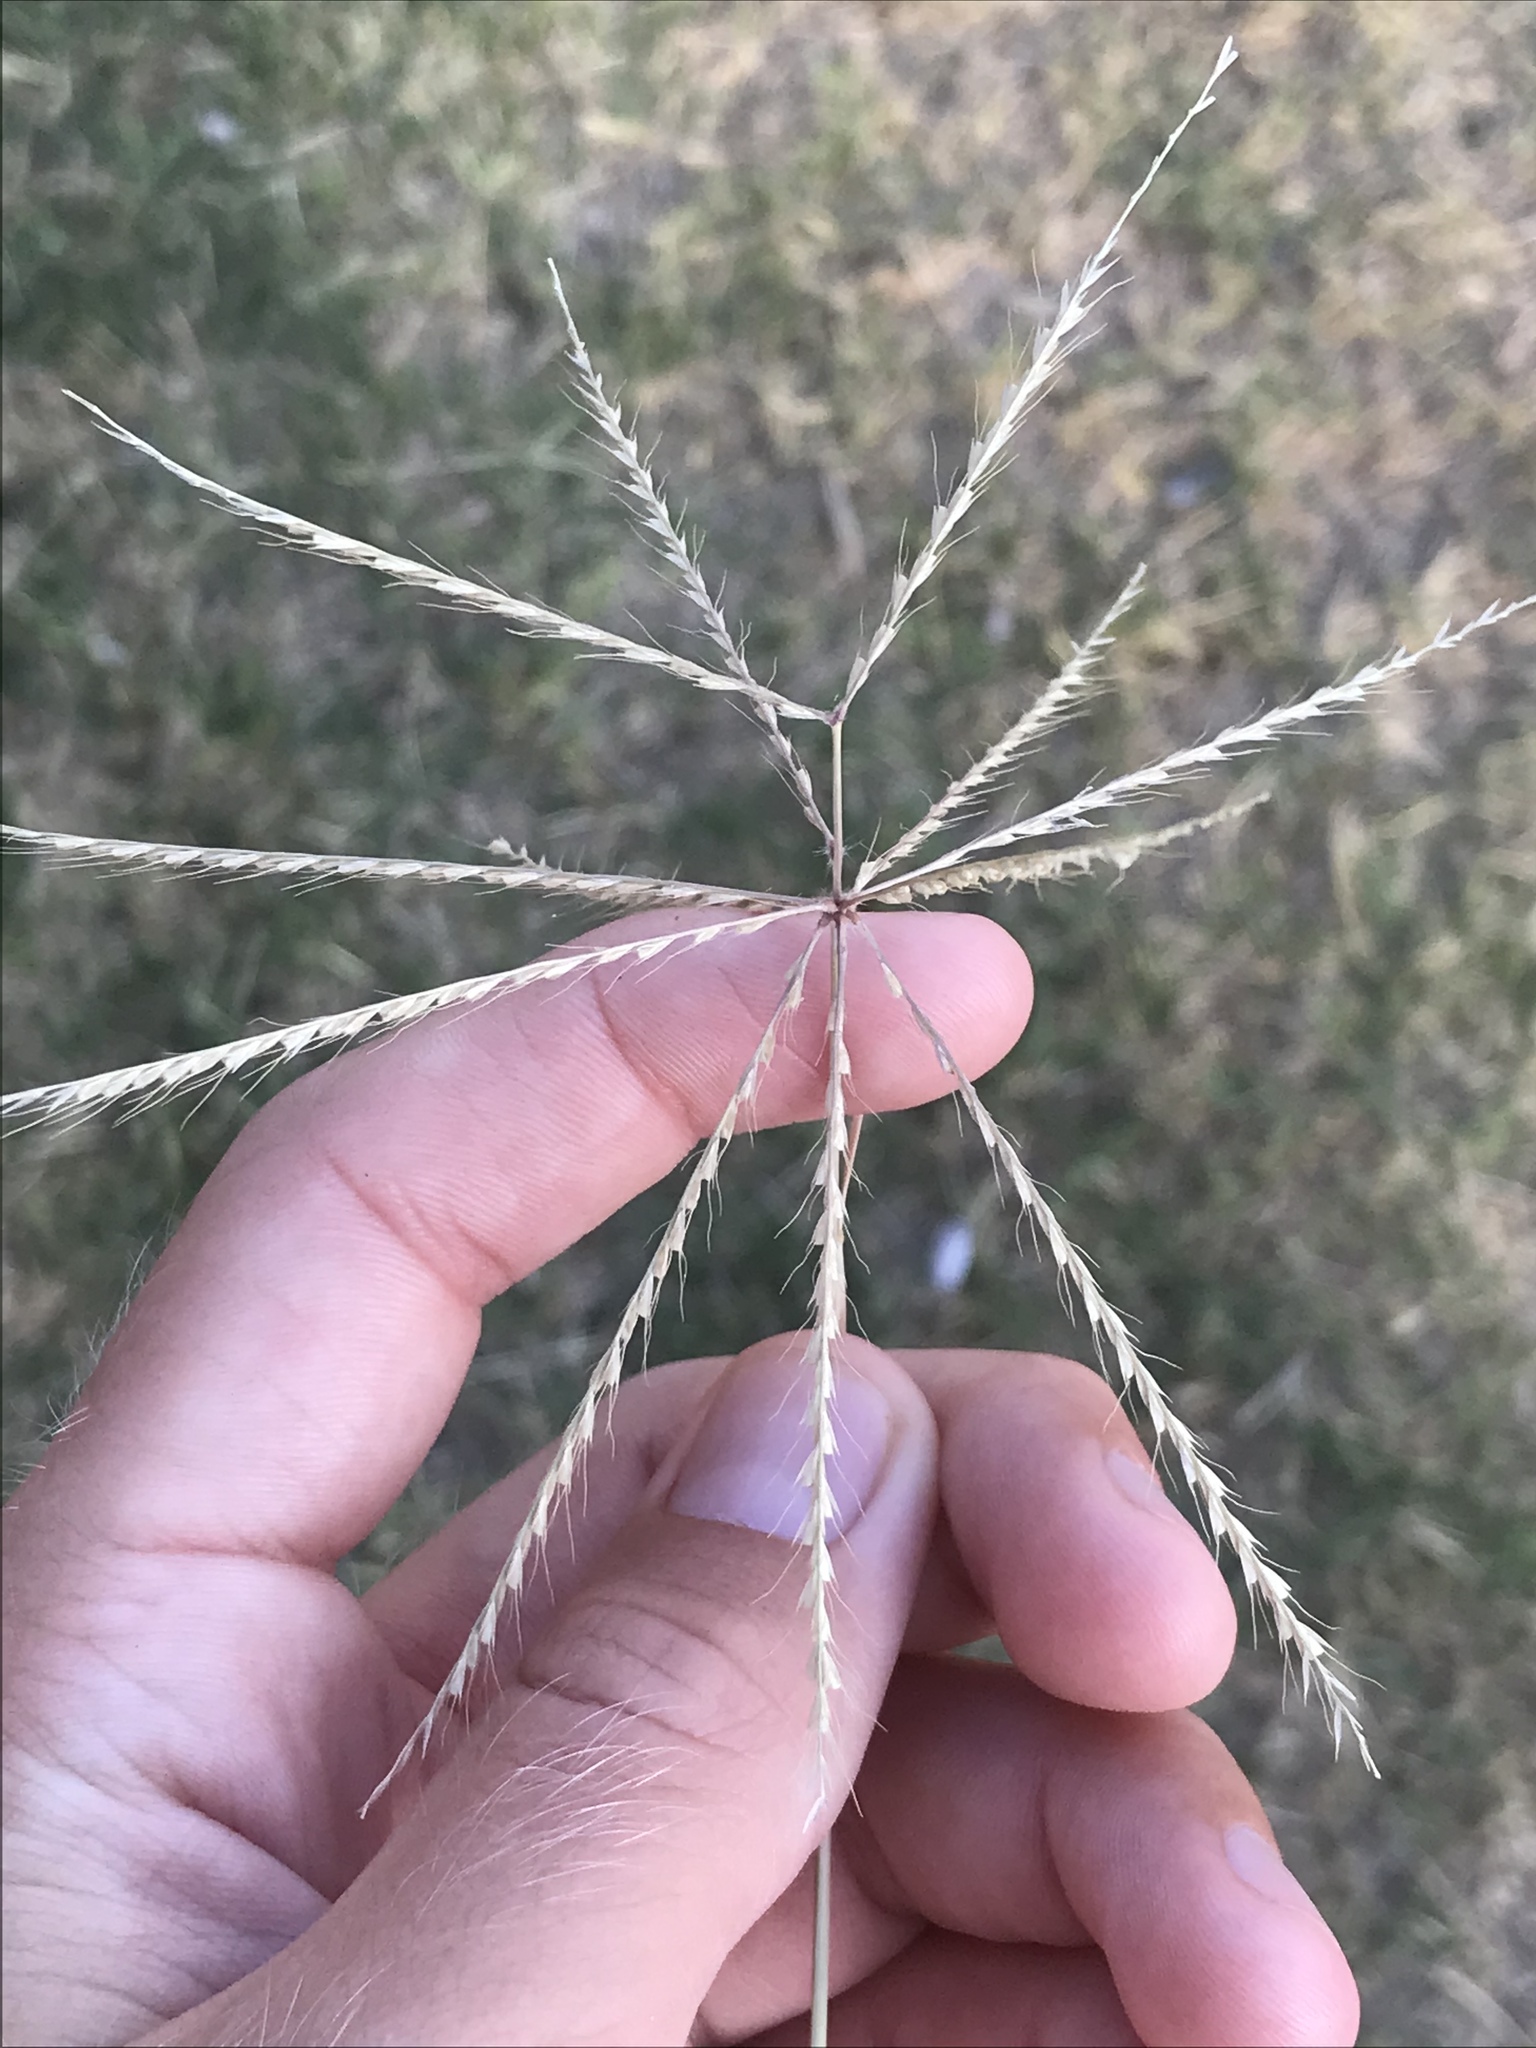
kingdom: Plantae
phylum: Tracheophyta
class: Liliopsida
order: Poales
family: Poaceae
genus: Chloris
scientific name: Chloris verticillata
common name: Tumble windmill grass
